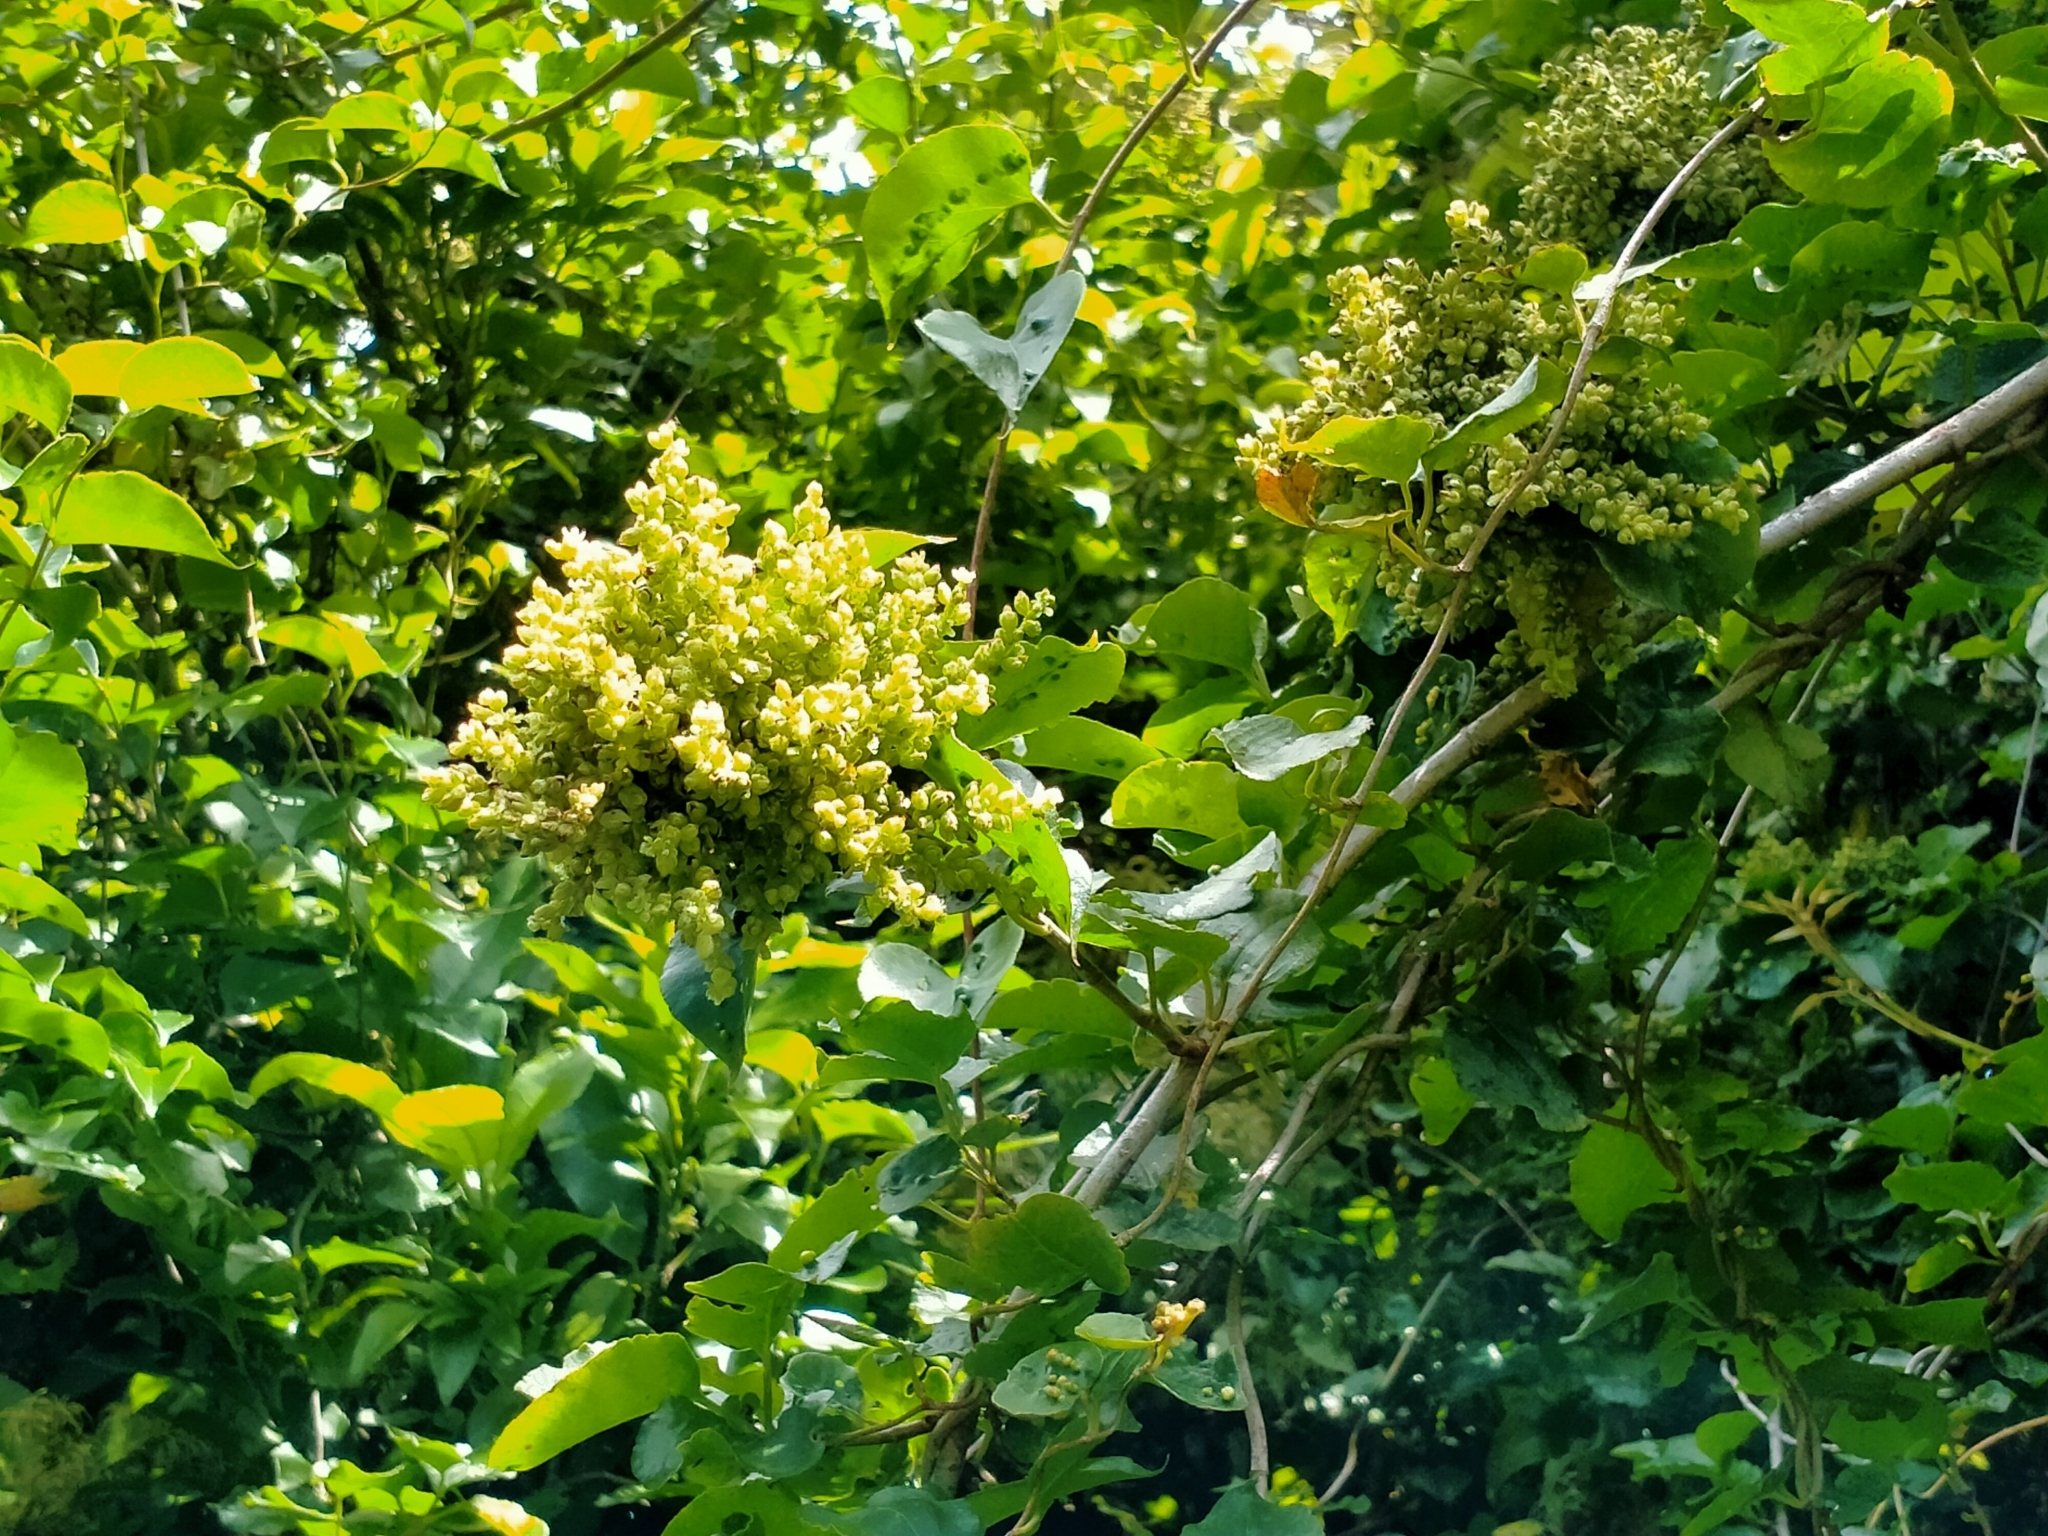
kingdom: Plantae
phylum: Tracheophyta
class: Magnoliopsida
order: Caryophyllales
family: Polygonaceae
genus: Muehlenbeckia
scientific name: Muehlenbeckia australis
